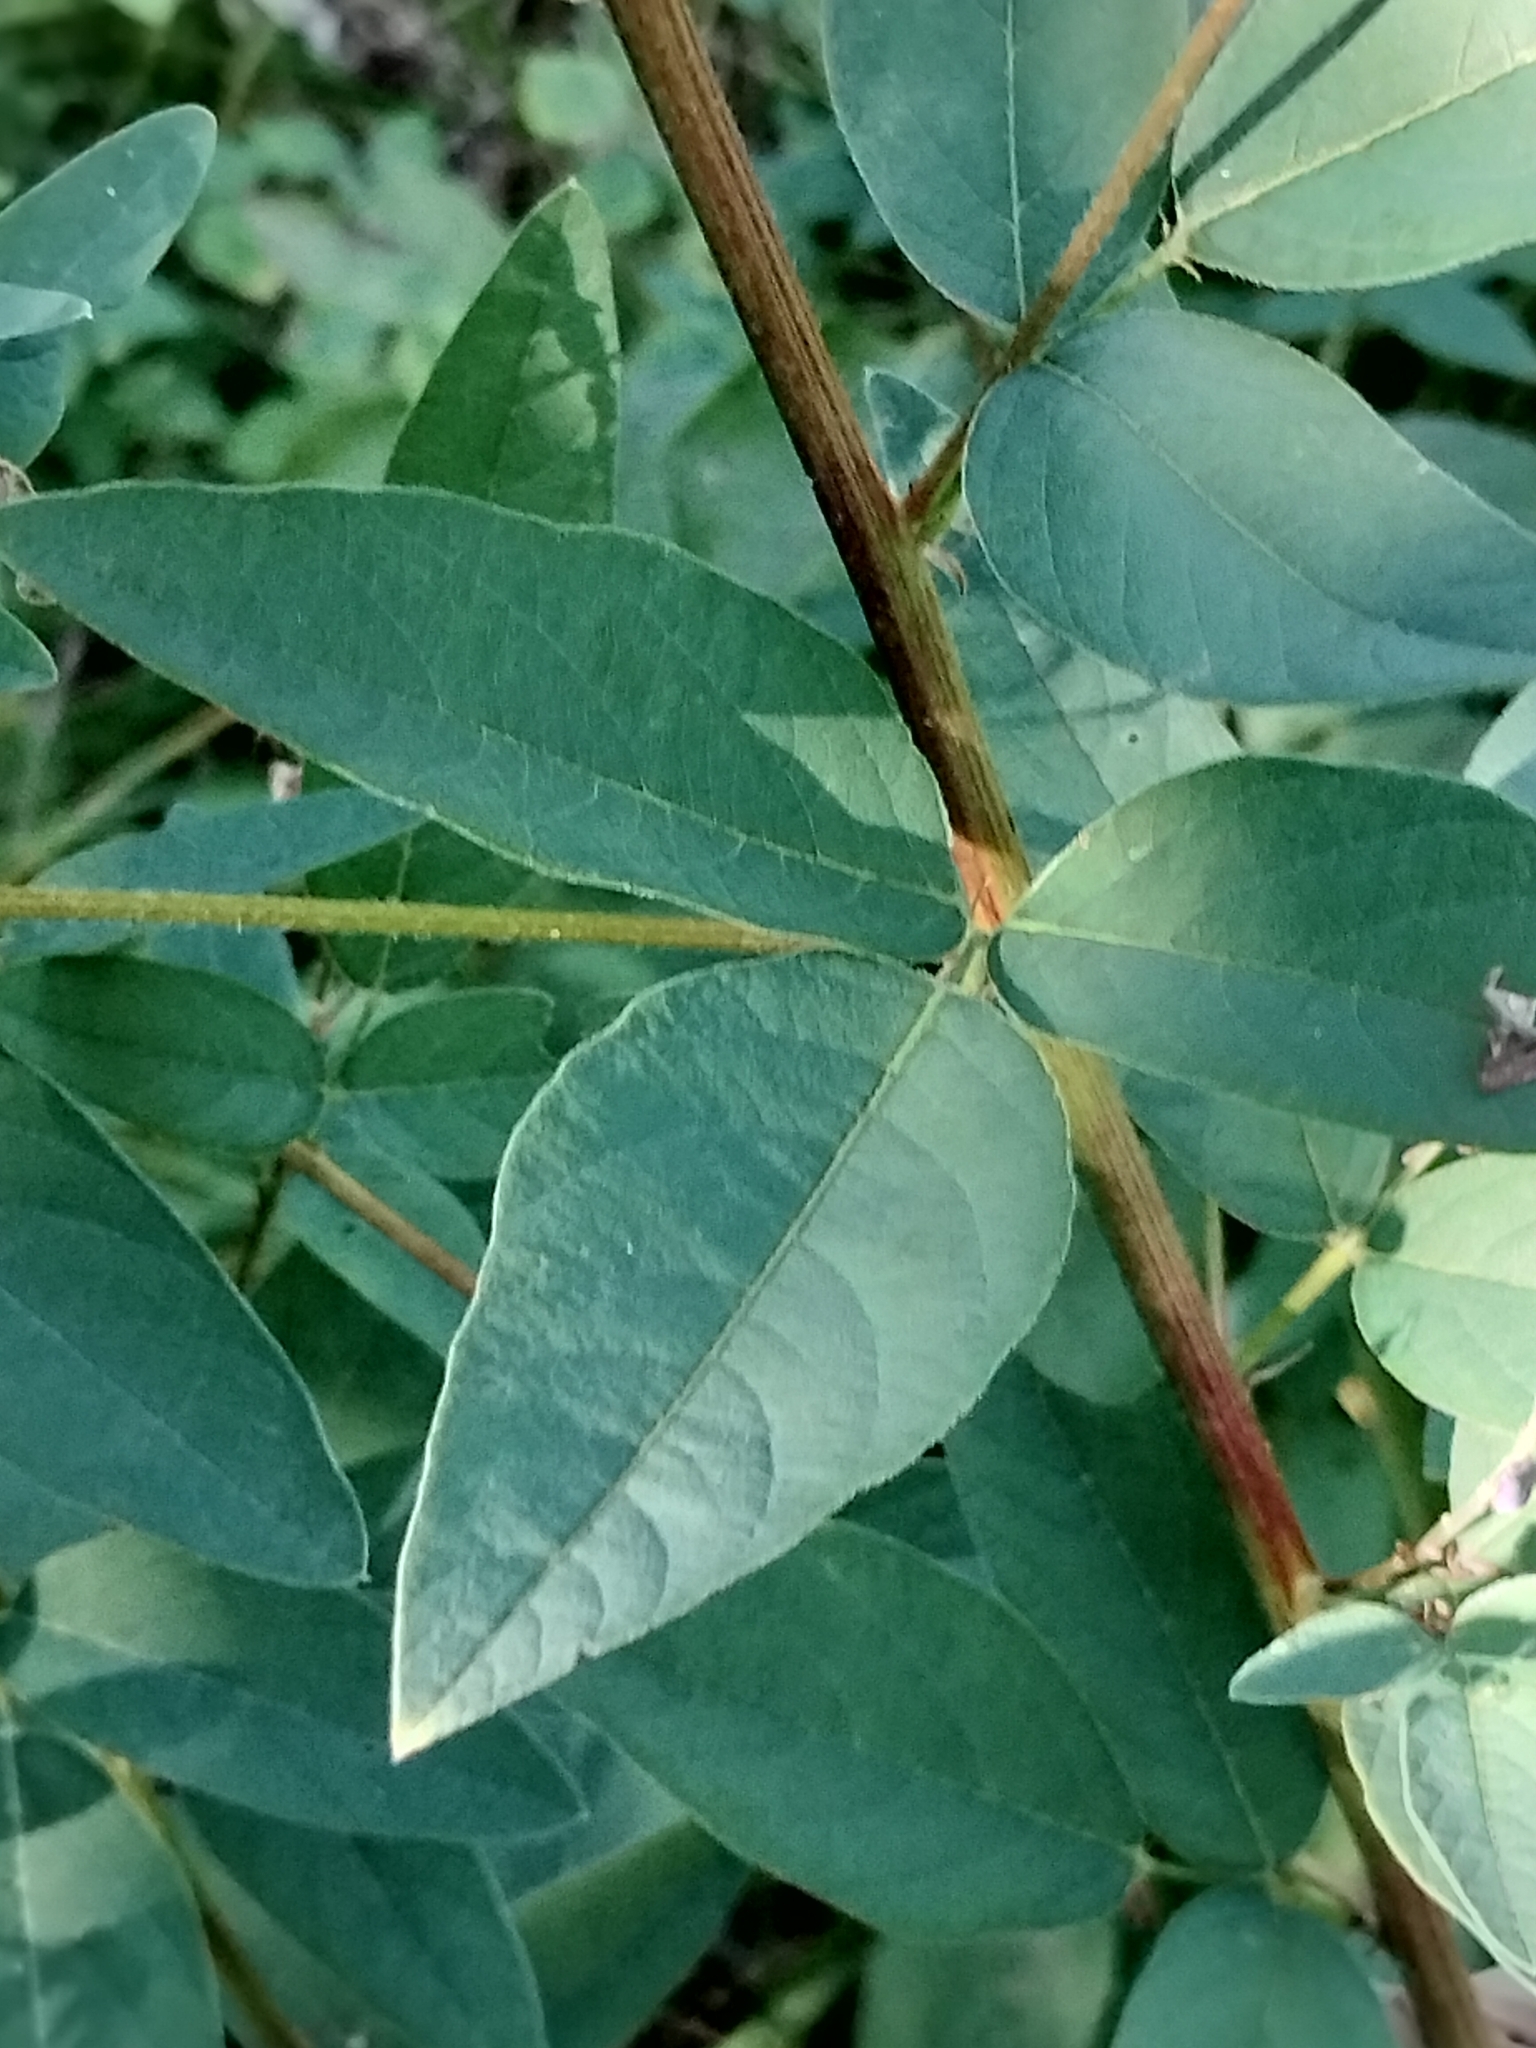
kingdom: Plantae
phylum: Tracheophyta
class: Magnoliopsida
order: Fabales
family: Fabaceae
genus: Desmodium
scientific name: Desmodium canadense
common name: Canada tick-trefoil
